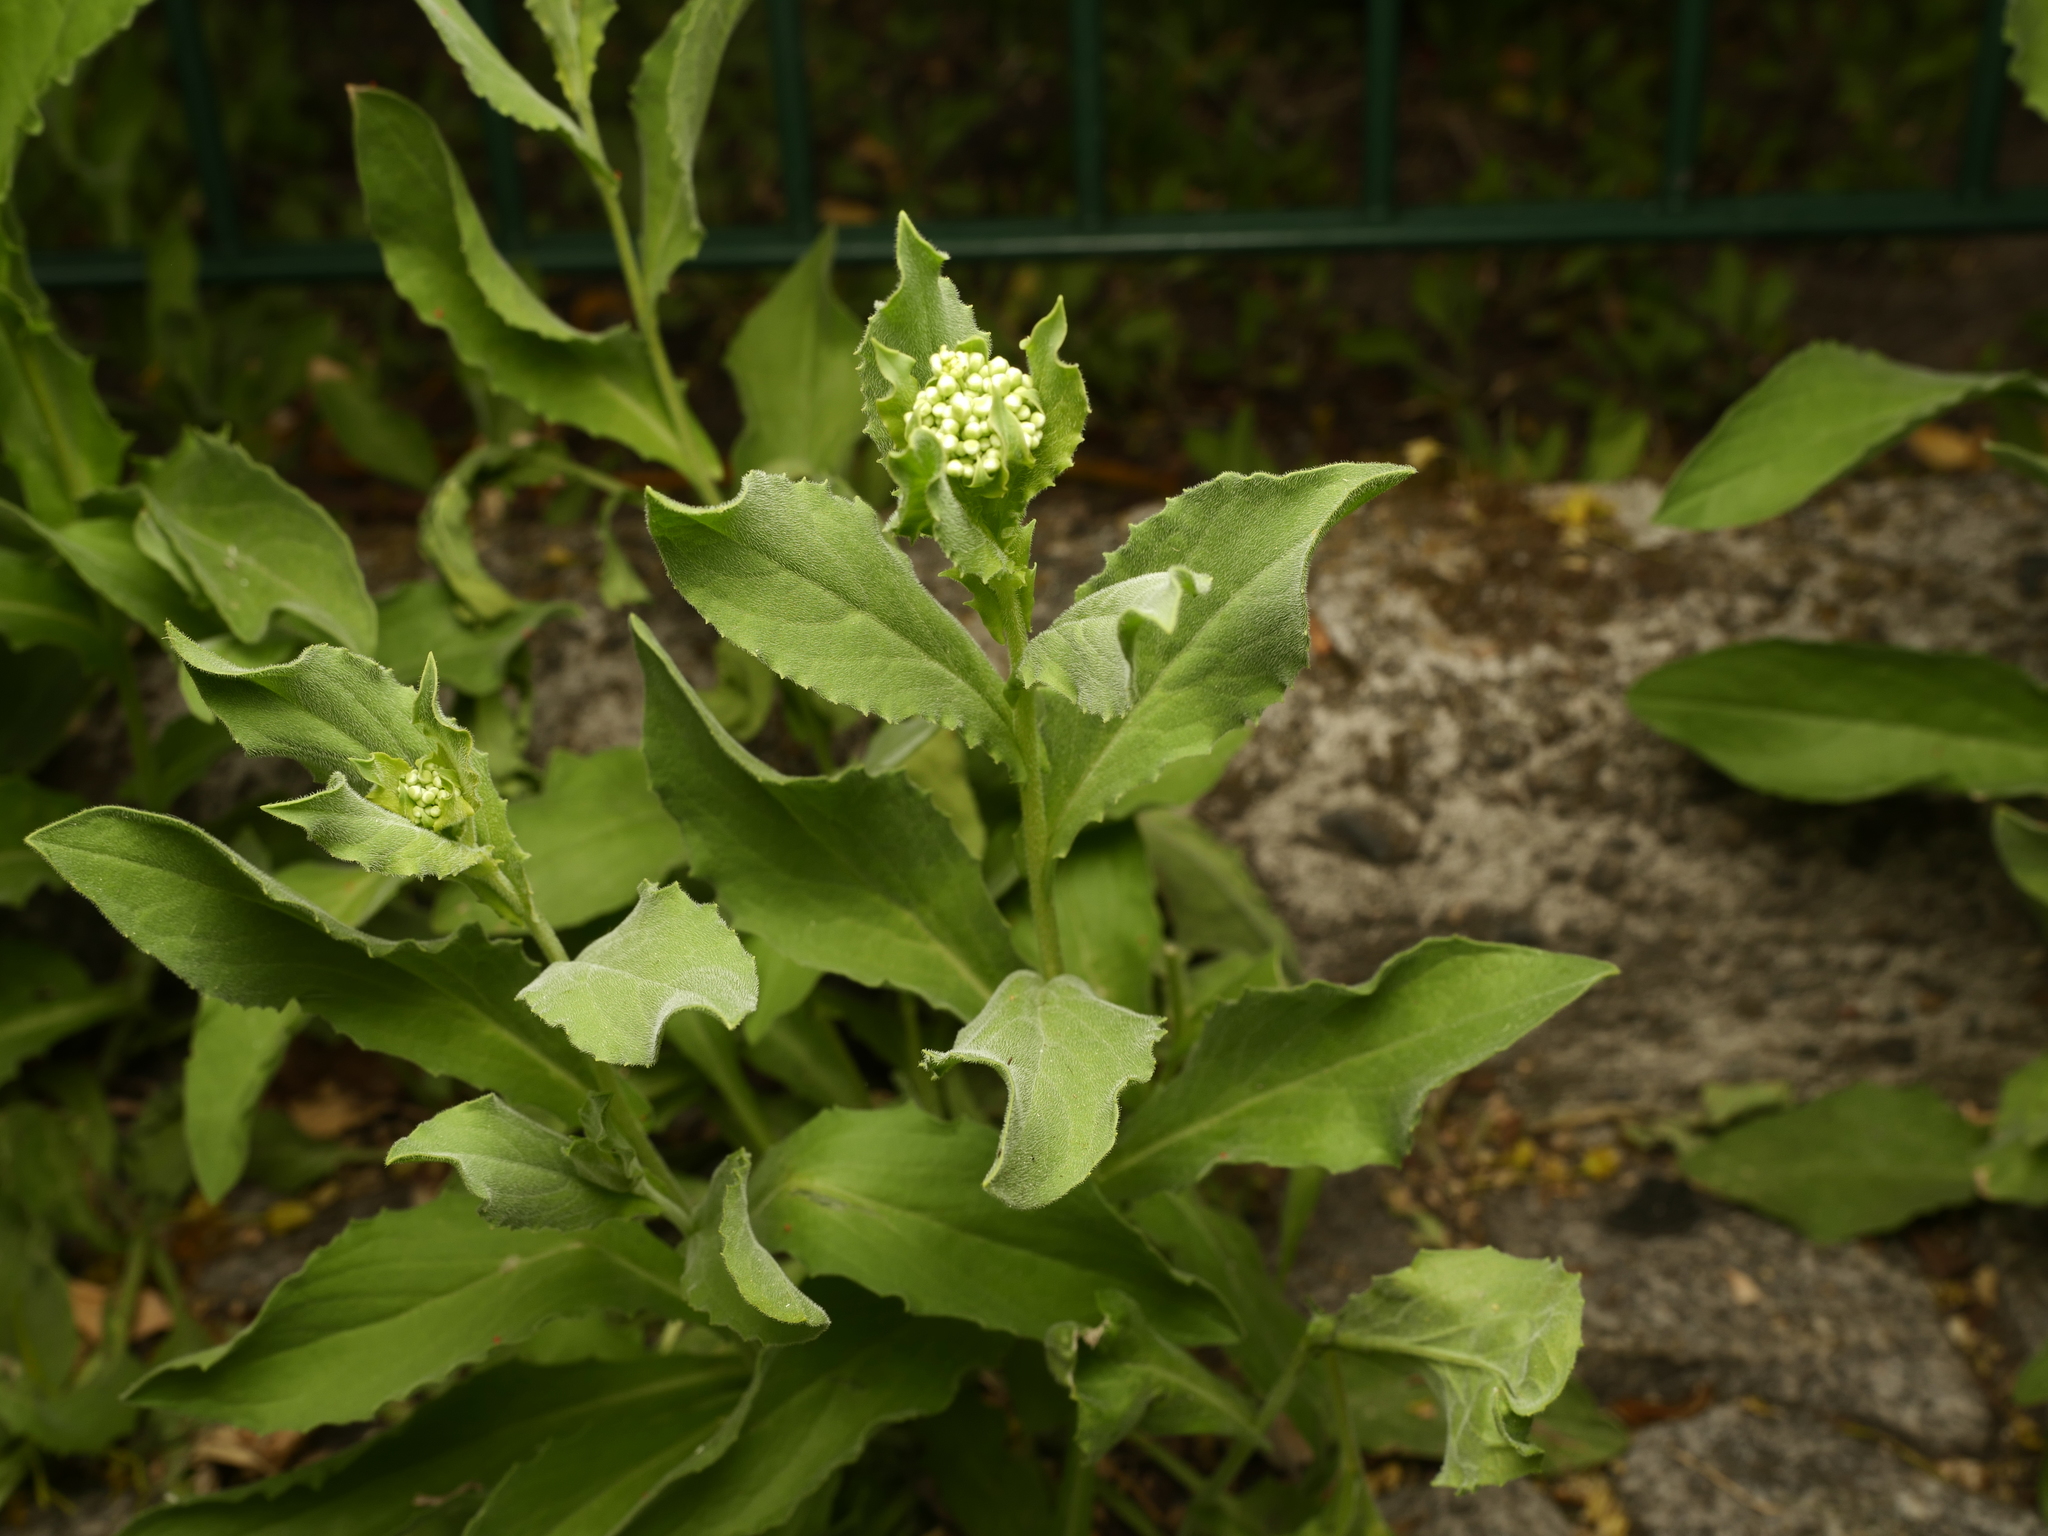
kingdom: Plantae
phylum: Tracheophyta
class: Magnoliopsida
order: Brassicales
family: Brassicaceae
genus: Lepidium
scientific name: Lepidium draba
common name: Hoary cress
